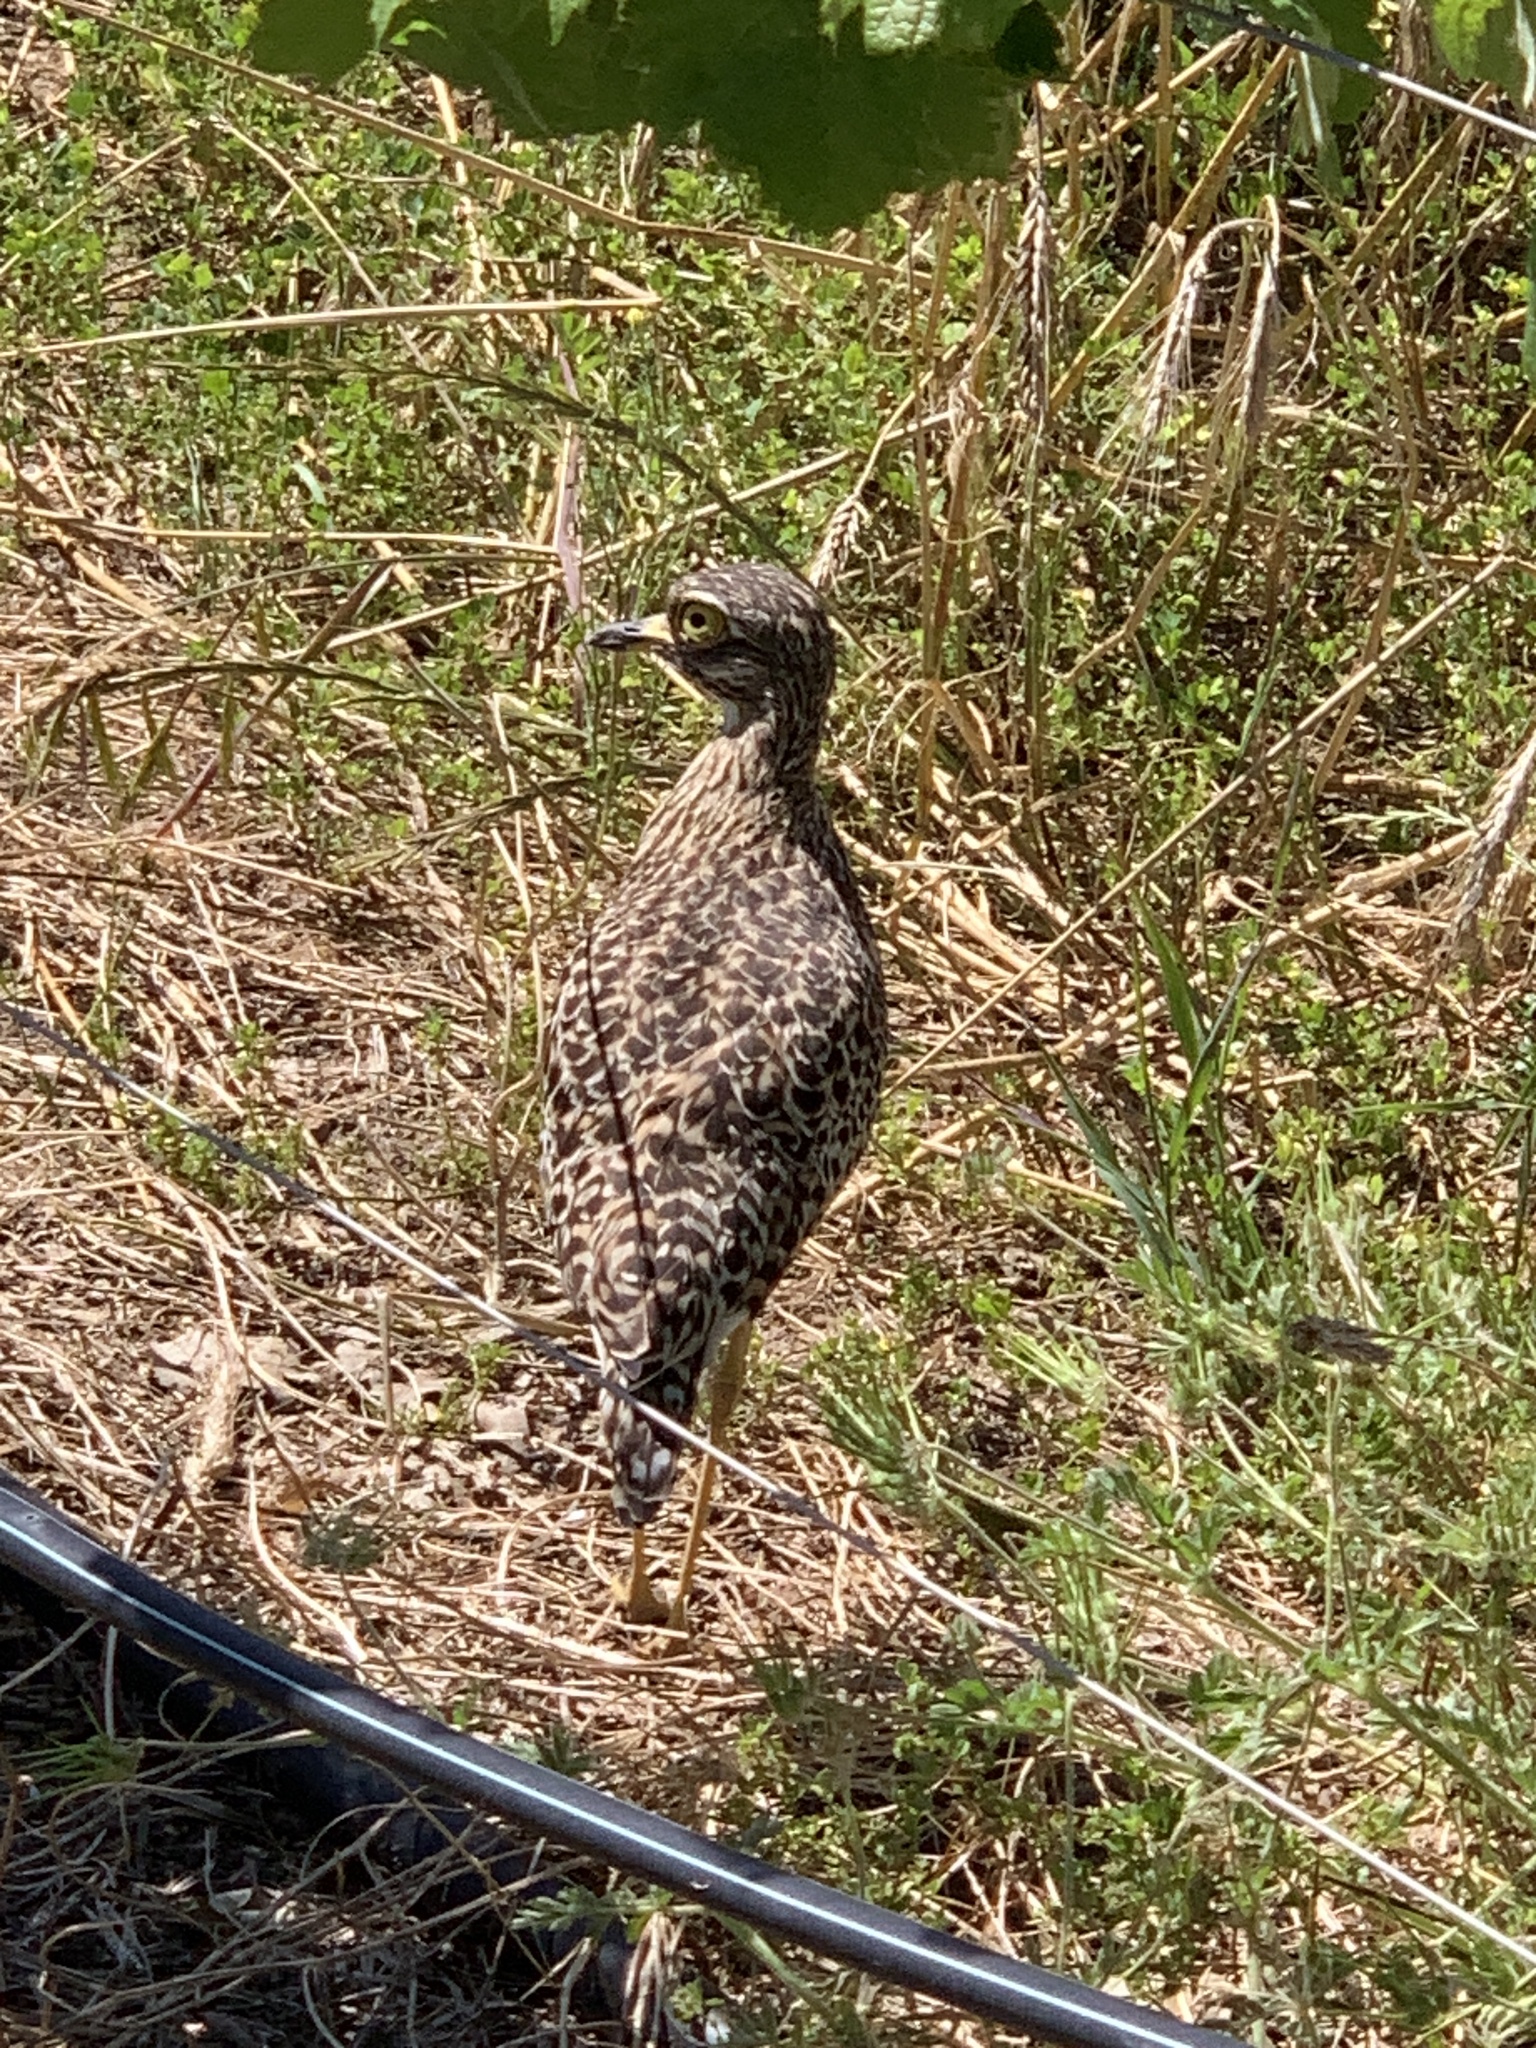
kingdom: Animalia
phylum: Chordata
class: Aves
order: Charadriiformes
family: Burhinidae
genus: Burhinus
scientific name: Burhinus capensis
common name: Spotted thick-knee
